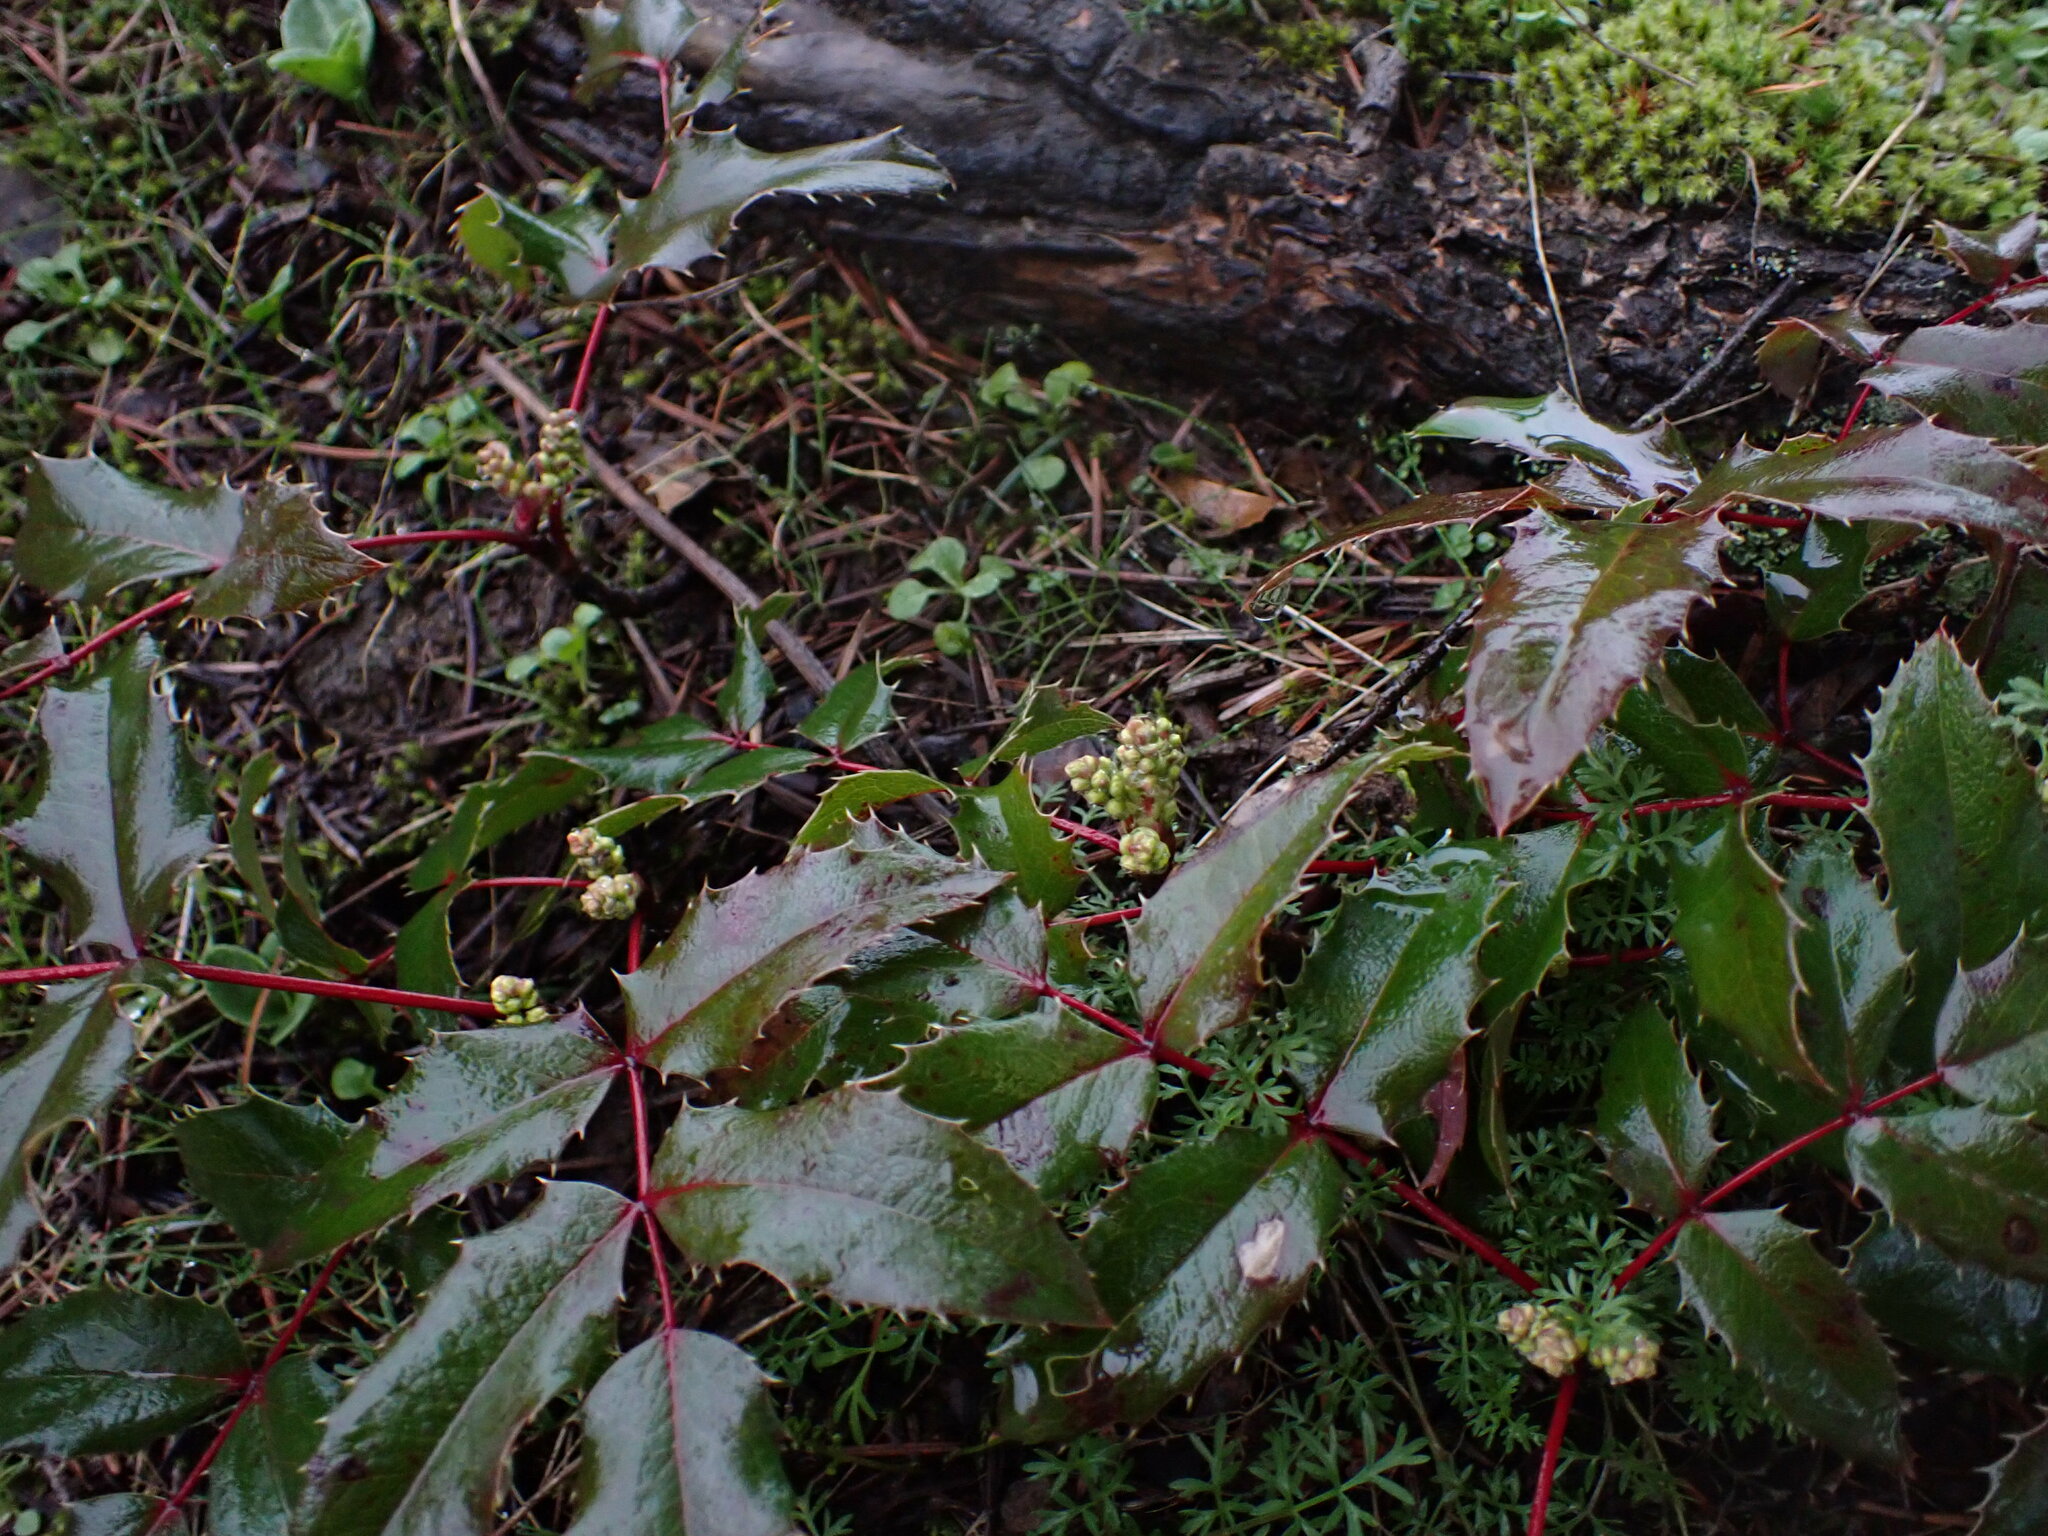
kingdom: Plantae
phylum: Tracheophyta
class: Magnoliopsida
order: Ranunculales
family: Berberidaceae
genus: Mahonia
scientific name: Mahonia aquifolium
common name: Oregon-grape
